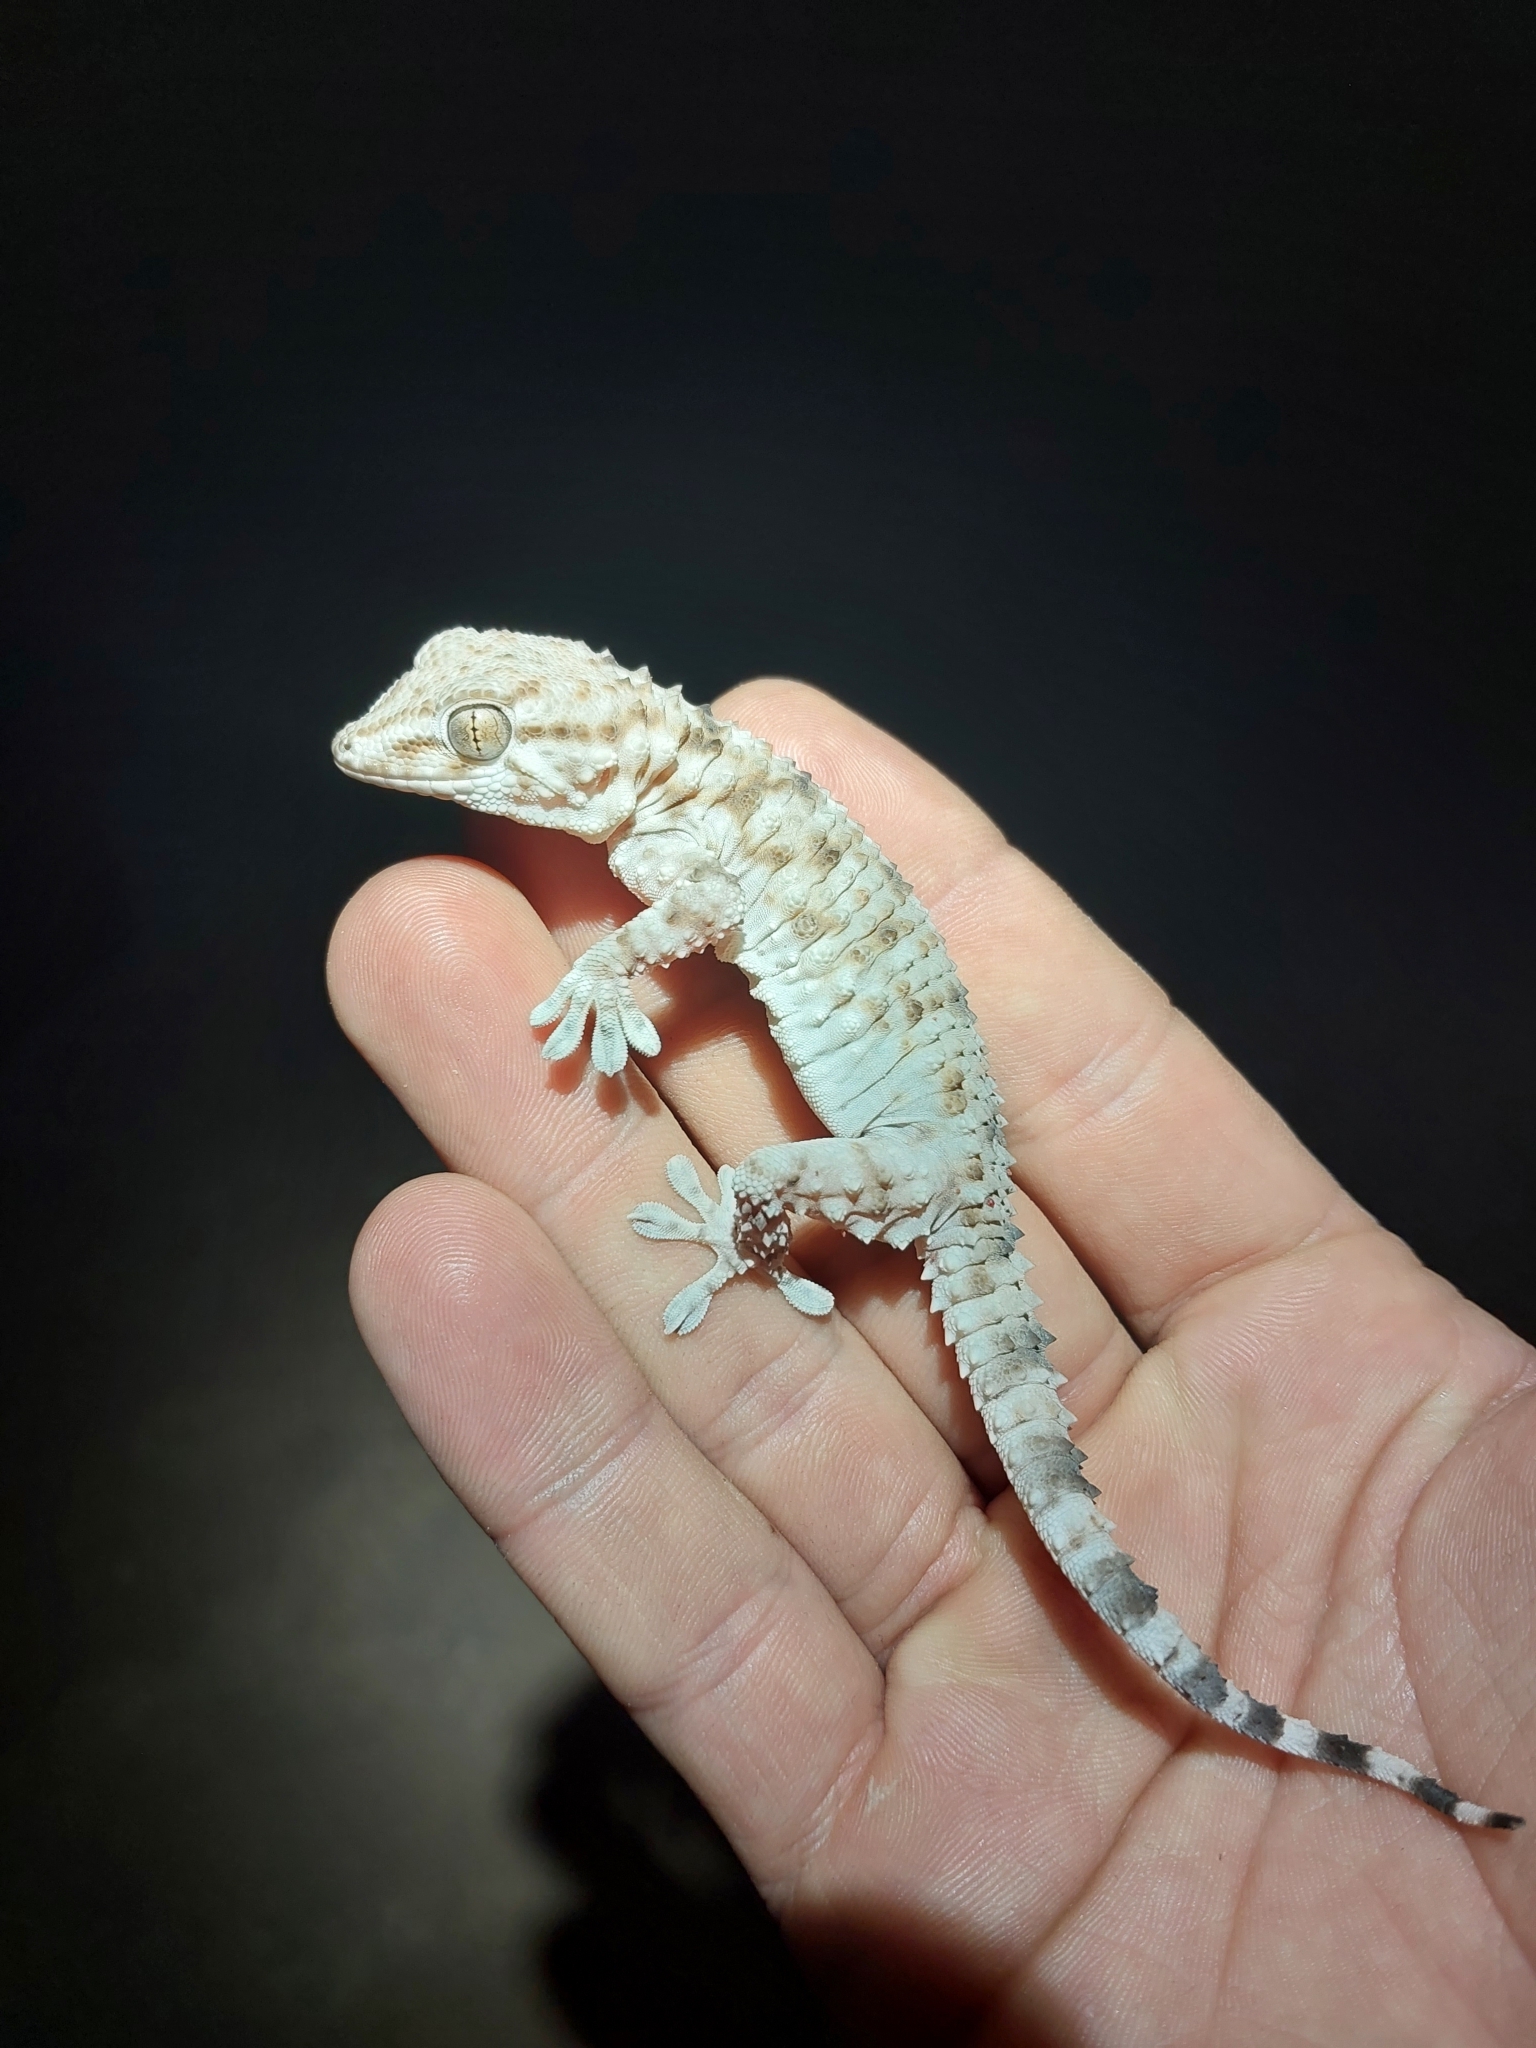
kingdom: Animalia
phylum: Chordata
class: Squamata
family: Phyllodactylidae
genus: Tarentola
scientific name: Tarentola deserti
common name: Desert wall gecko
